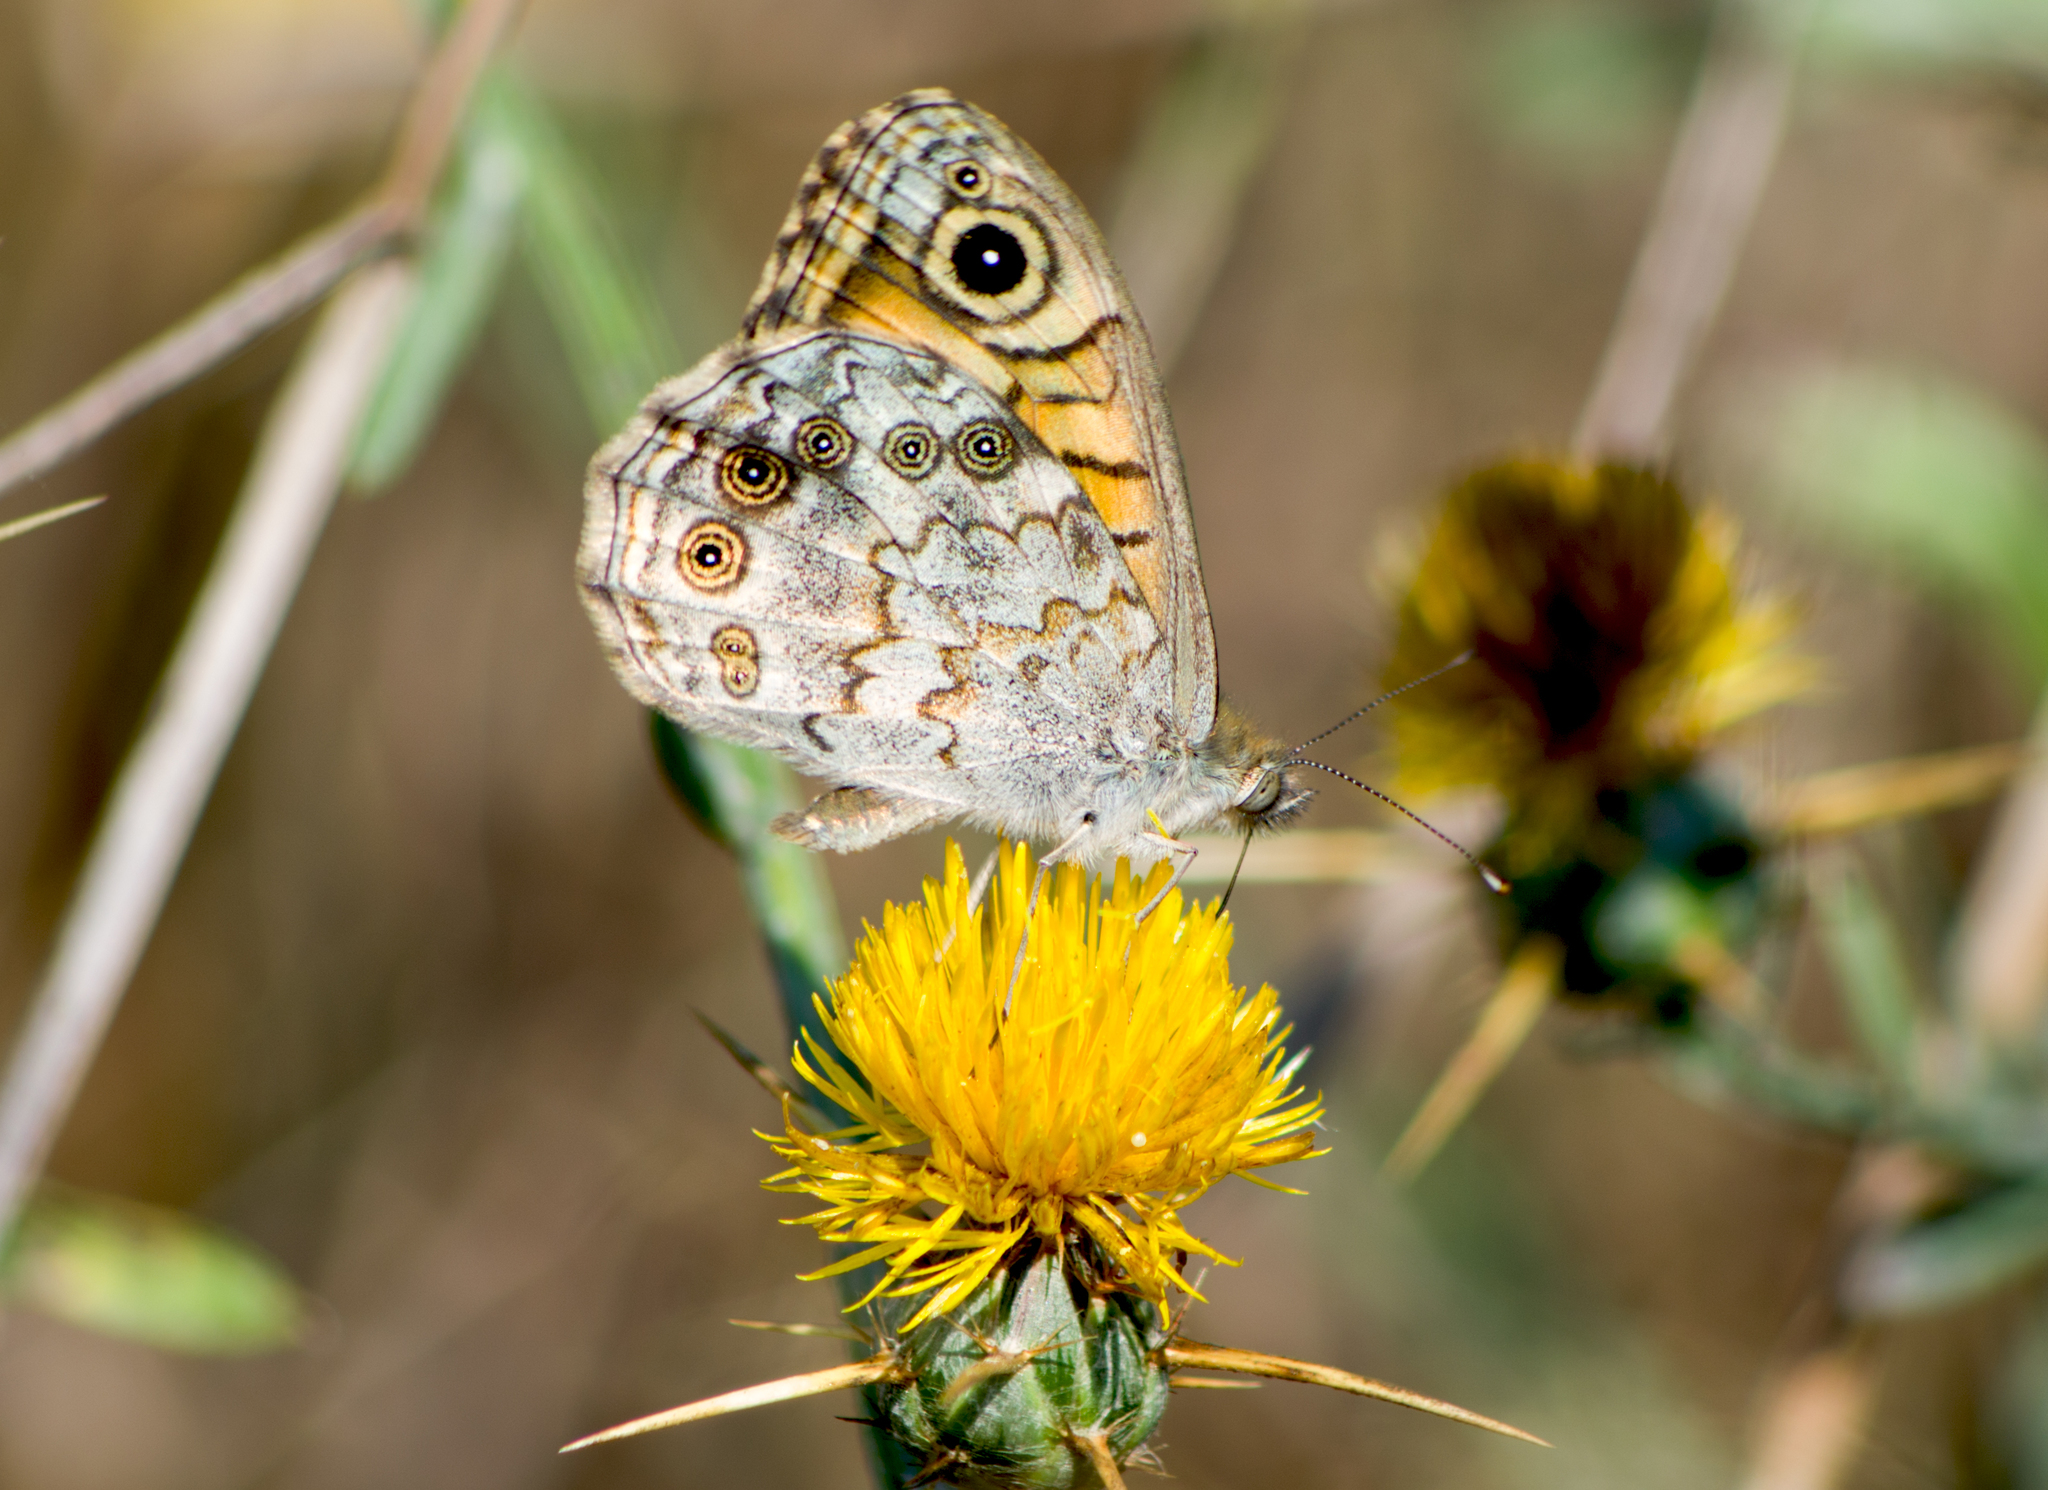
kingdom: Animalia
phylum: Arthropoda
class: Insecta
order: Lepidoptera
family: Nymphalidae
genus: Pararge
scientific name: Pararge Lasiommata megera
